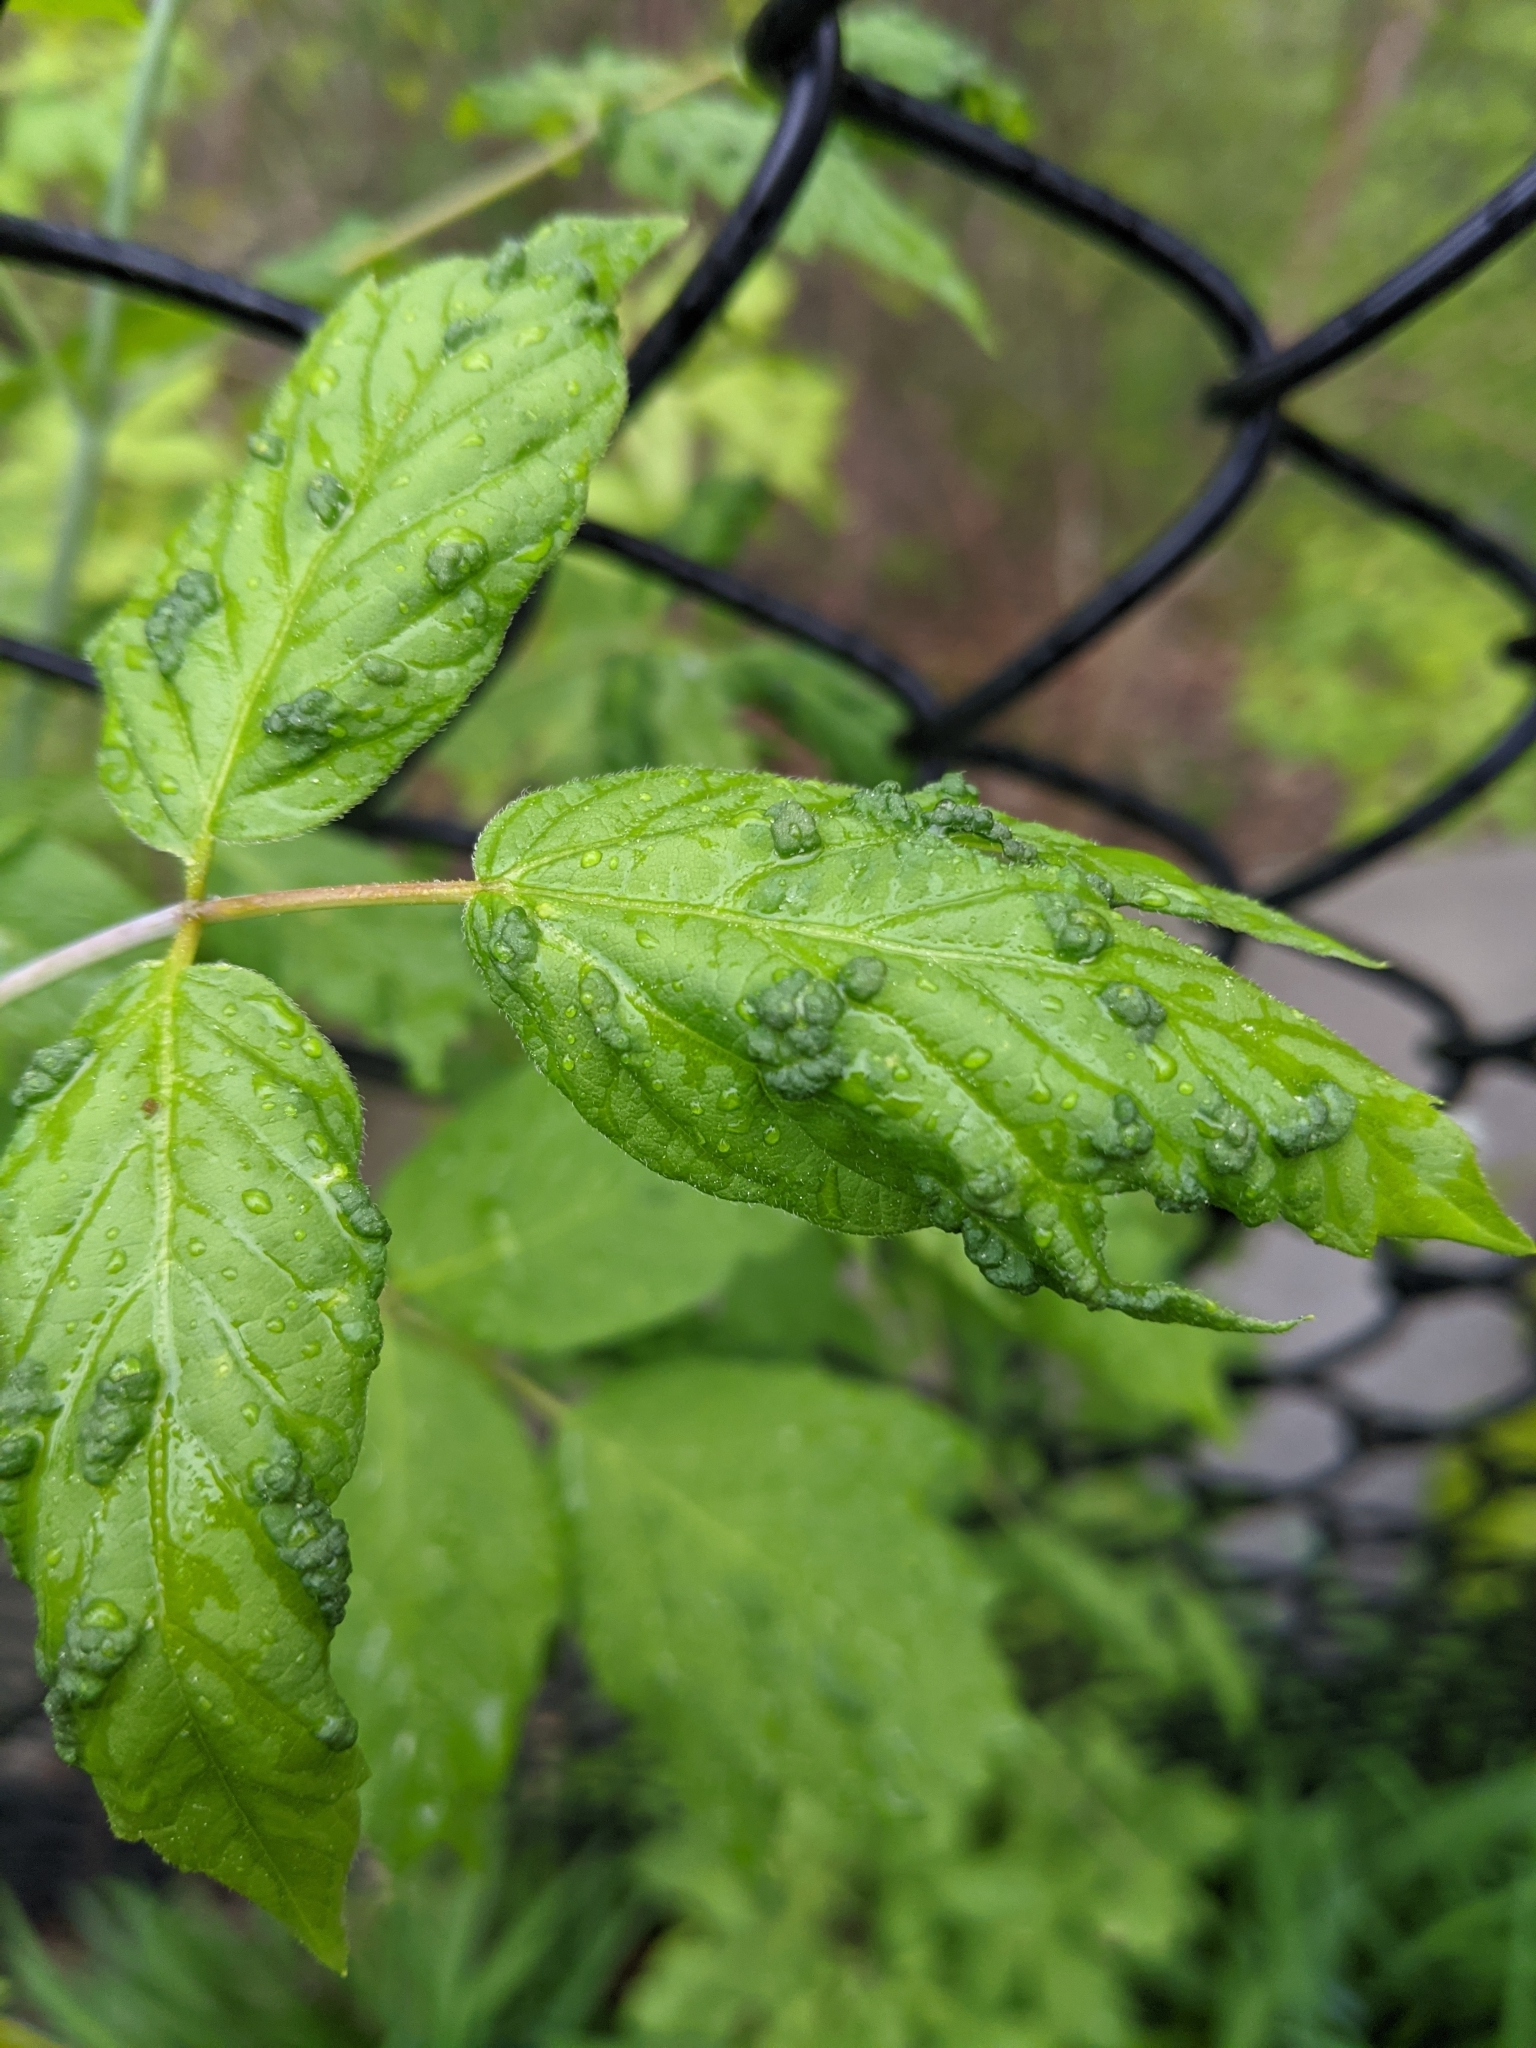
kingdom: Animalia
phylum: Arthropoda
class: Arachnida
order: Trombidiformes
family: Eriophyidae
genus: Aceria
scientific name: Aceria
